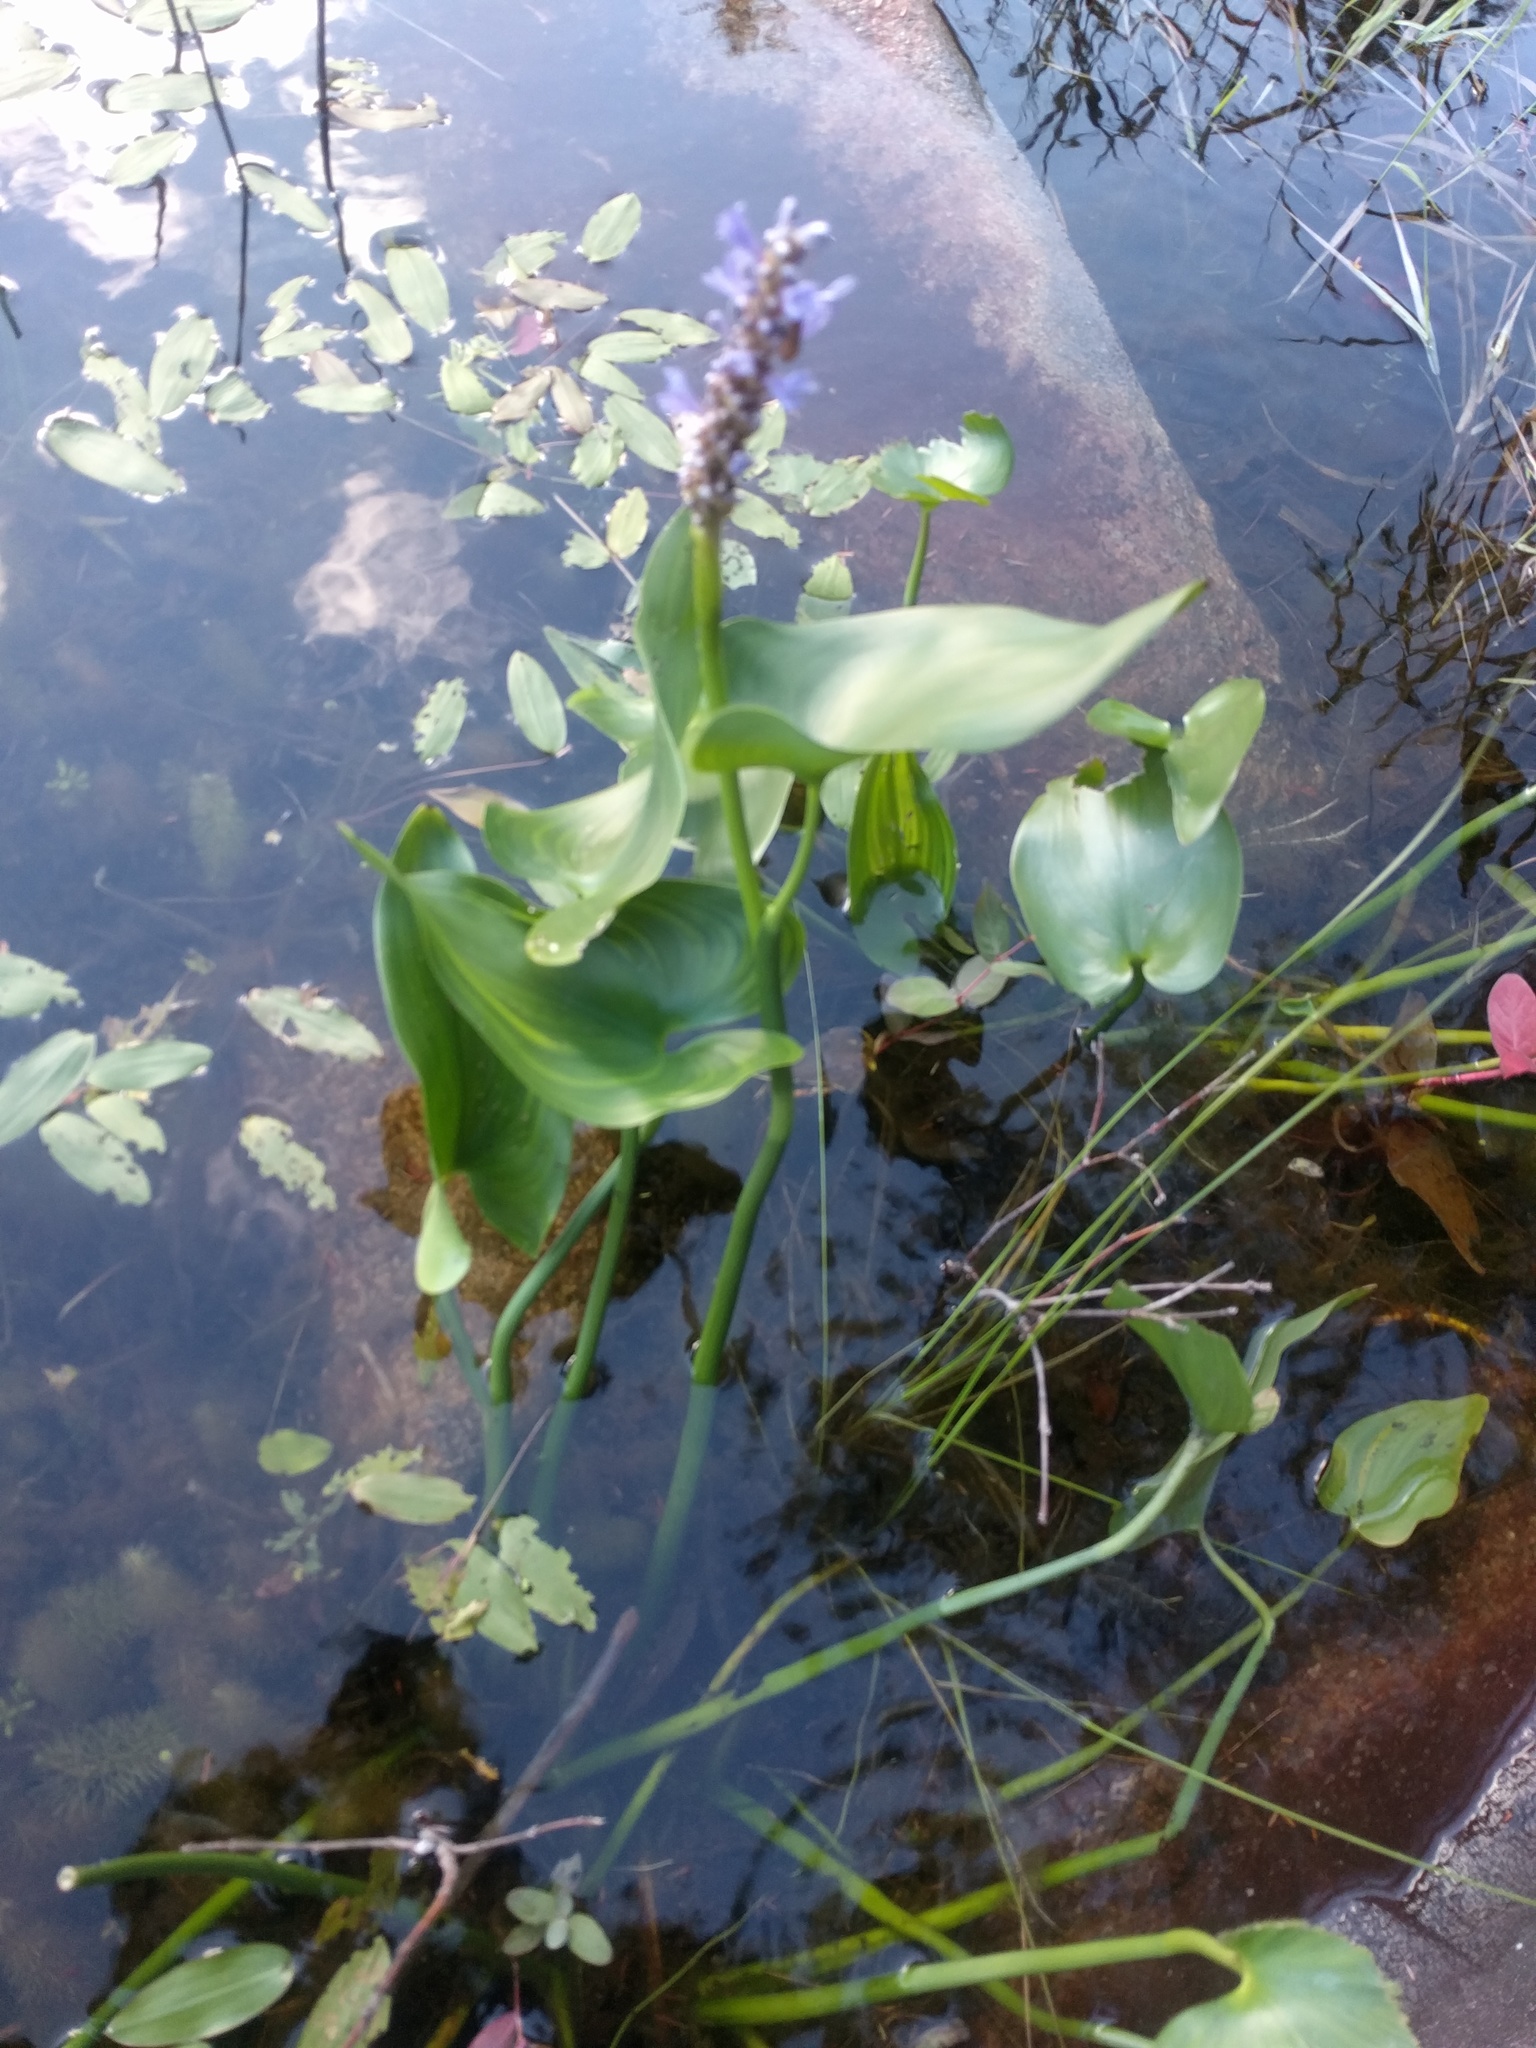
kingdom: Plantae
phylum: Tracheophyta
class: Liliopsida
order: Commelinales
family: Pontederiaceae
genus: Pontederia
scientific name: Pontederia cordata
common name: Pickerelweed
